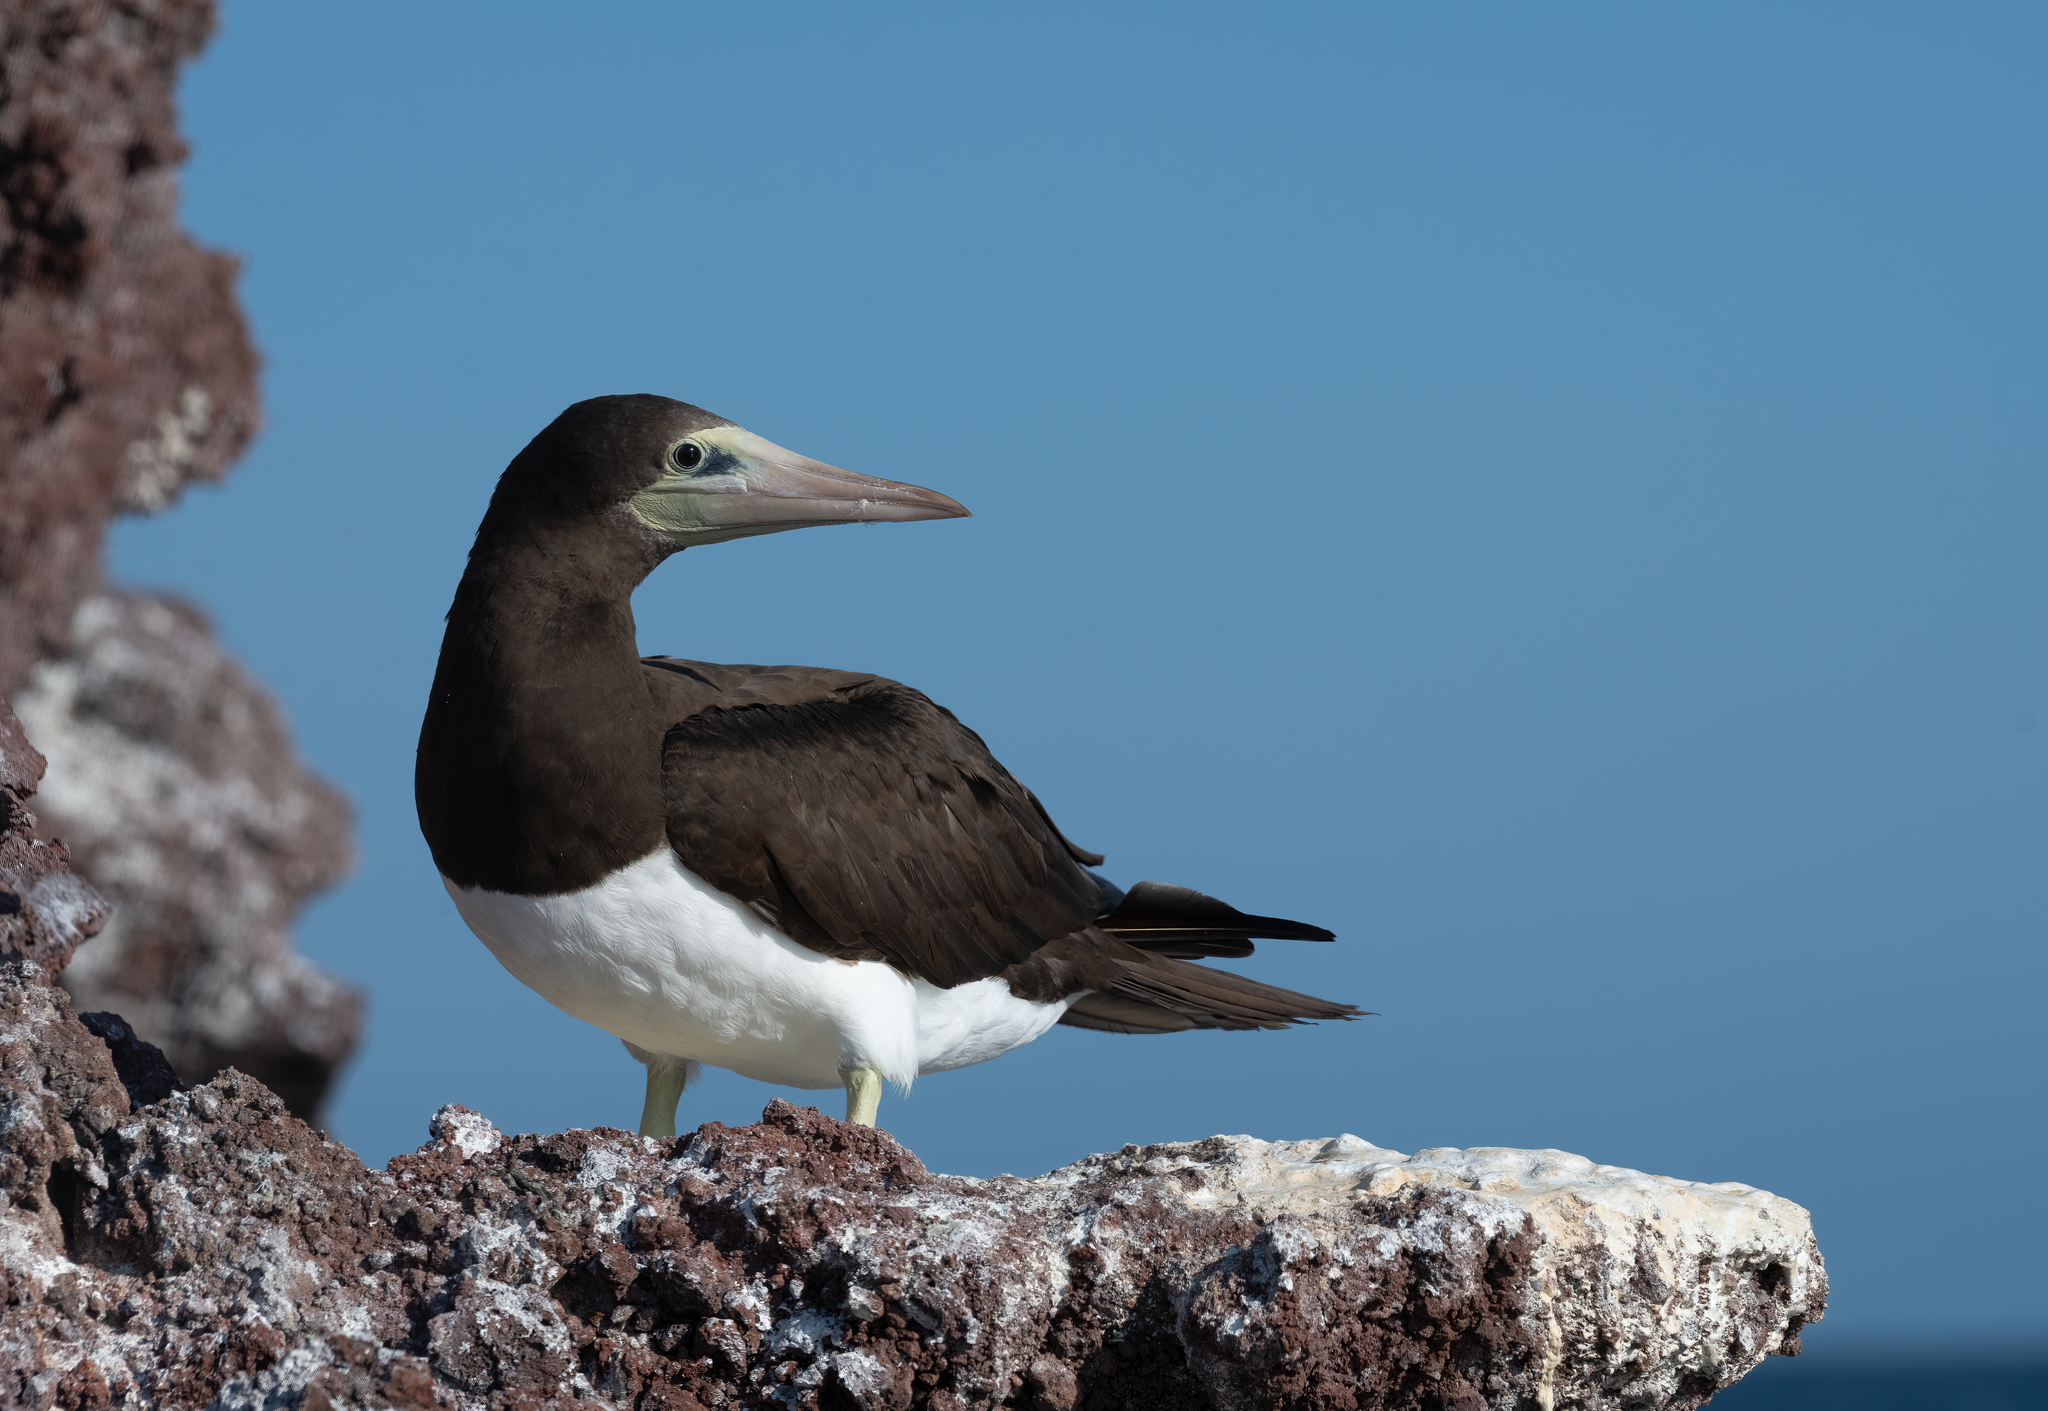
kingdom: Animalia
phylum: Chordata
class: Aves
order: Suliformes
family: Sulidae
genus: Sula
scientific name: Sula leucogaster
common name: Brown booby
